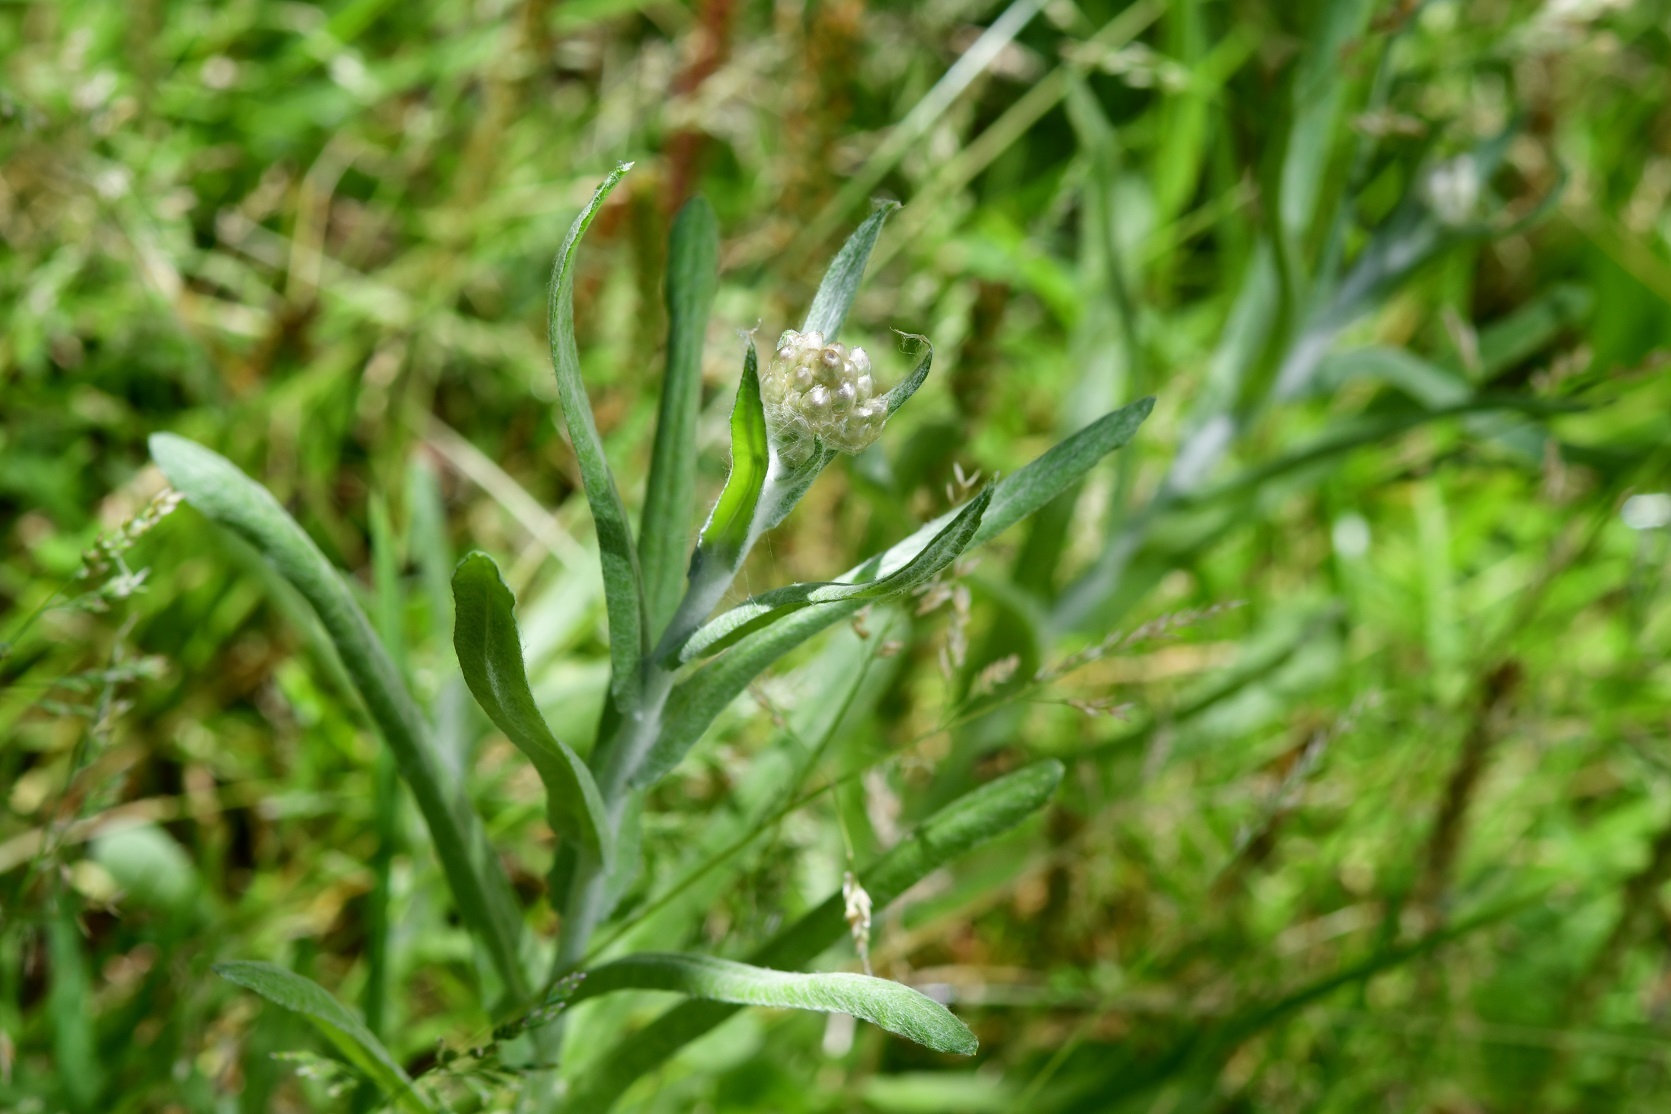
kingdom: Plantae
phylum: Tracheophyta
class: Magnoliopsida
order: Asterales
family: Asteraceae
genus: Pseudognaphalium
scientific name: Pseudognaphalium chartaceum
